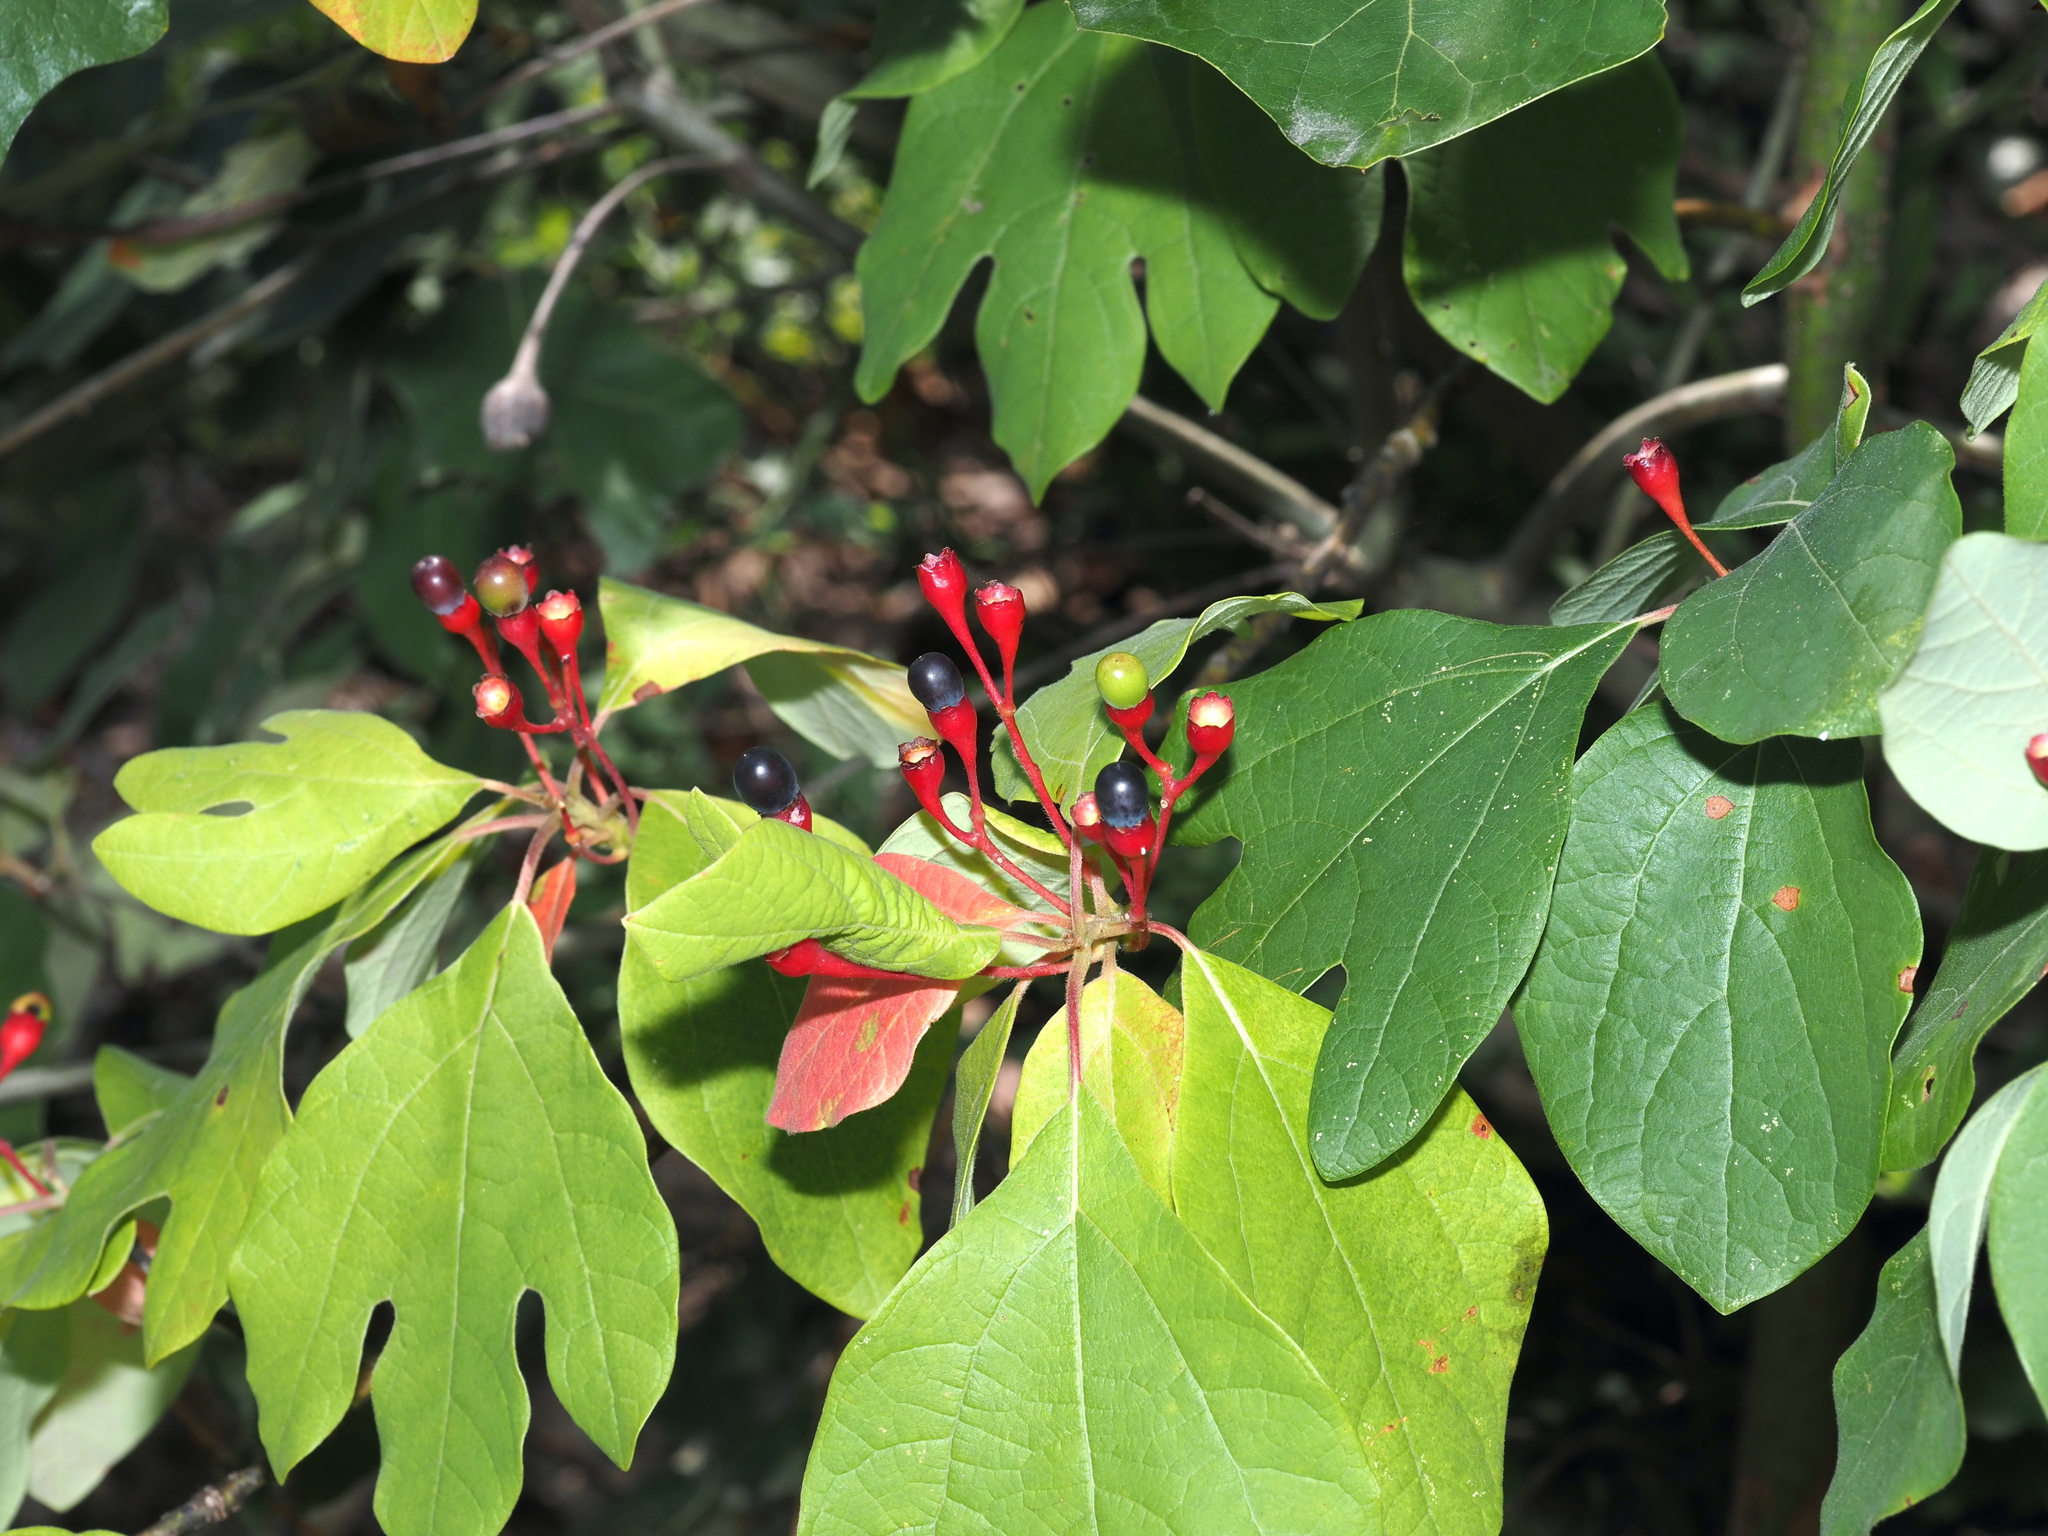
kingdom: Plantae
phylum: Tracheophyta
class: Magnoliopsida
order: Laurales
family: Lauraceae
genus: Sassafras
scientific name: Sassafras albidum
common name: Sassafras
